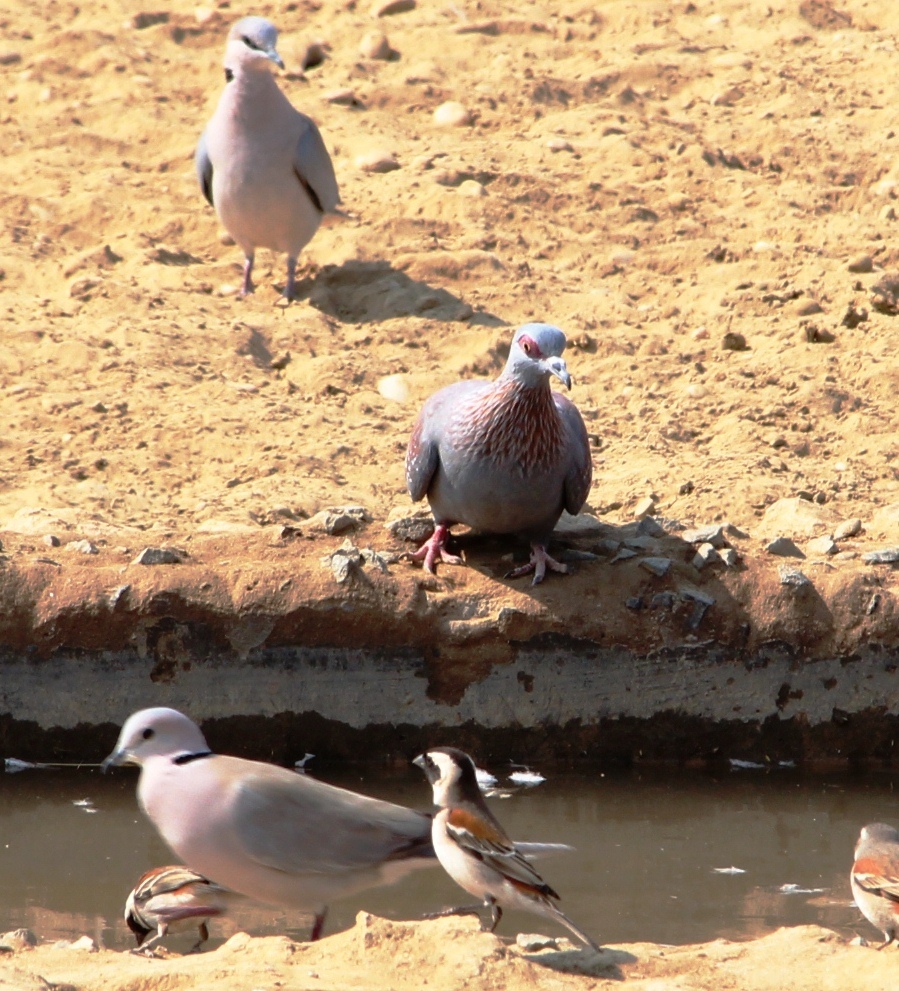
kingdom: Animalia
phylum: Chordata
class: Aves
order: Columbiformes
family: Columbidae
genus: Columba
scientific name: Columba guinea
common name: Speckled pigeon
